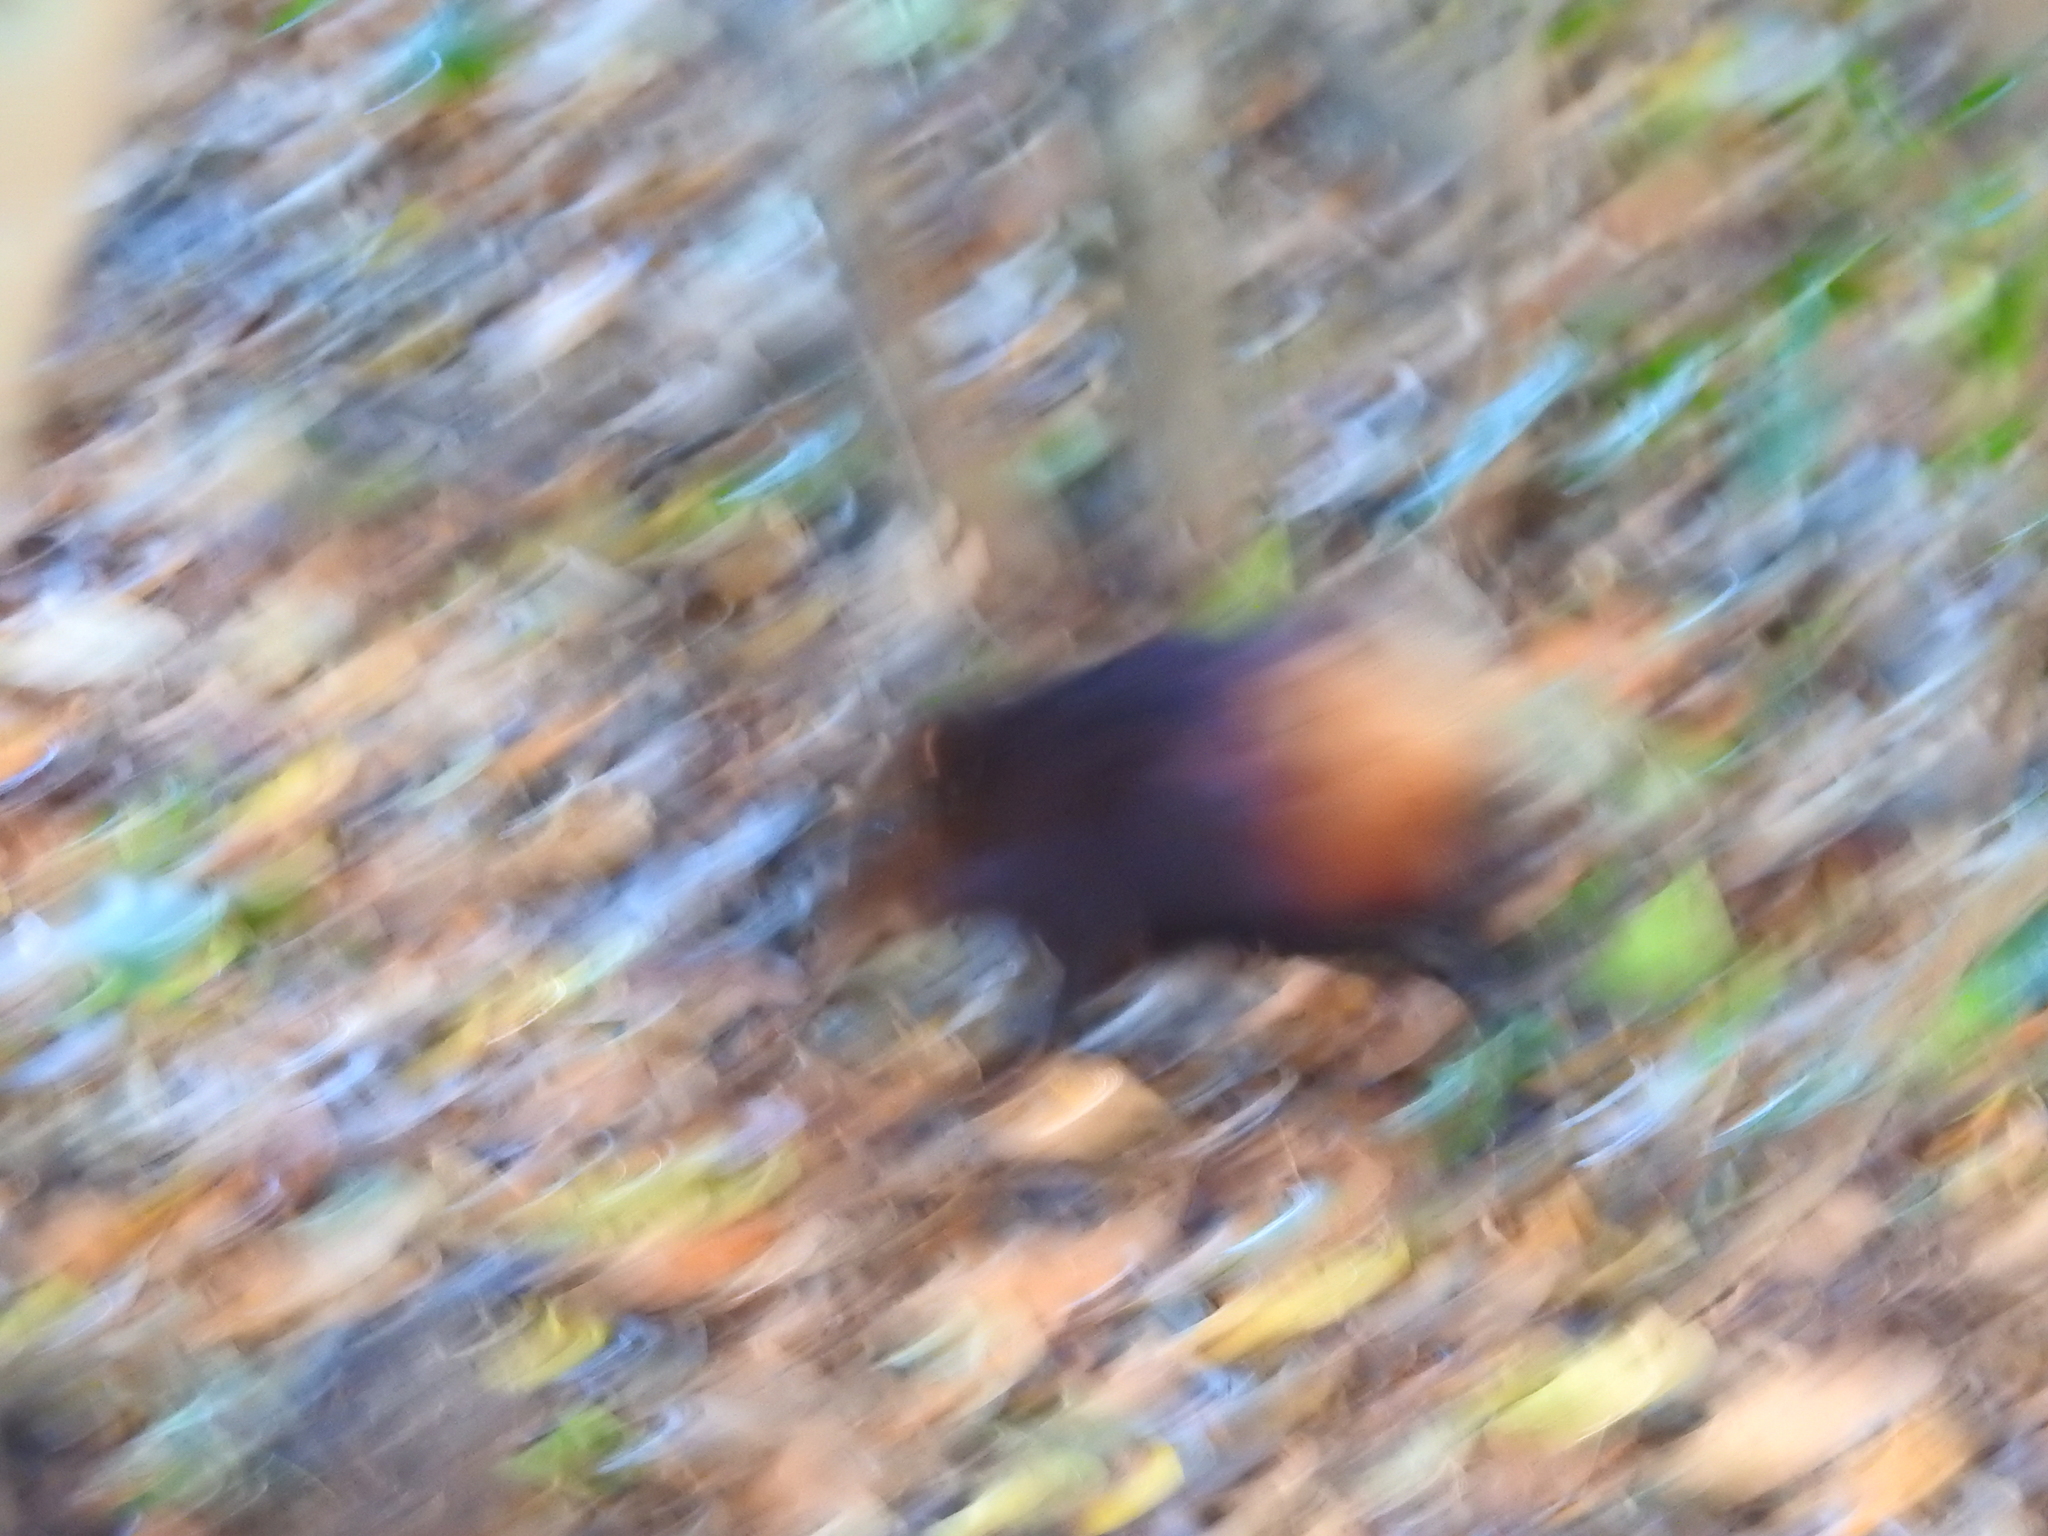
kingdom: Animalia
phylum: Chordata
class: Mammalia
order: Macroscelidea
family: Macroscelididae
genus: Rhynchocyon
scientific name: Rhynchocyon chrysopygus
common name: Golden-rumped elephant shrew
